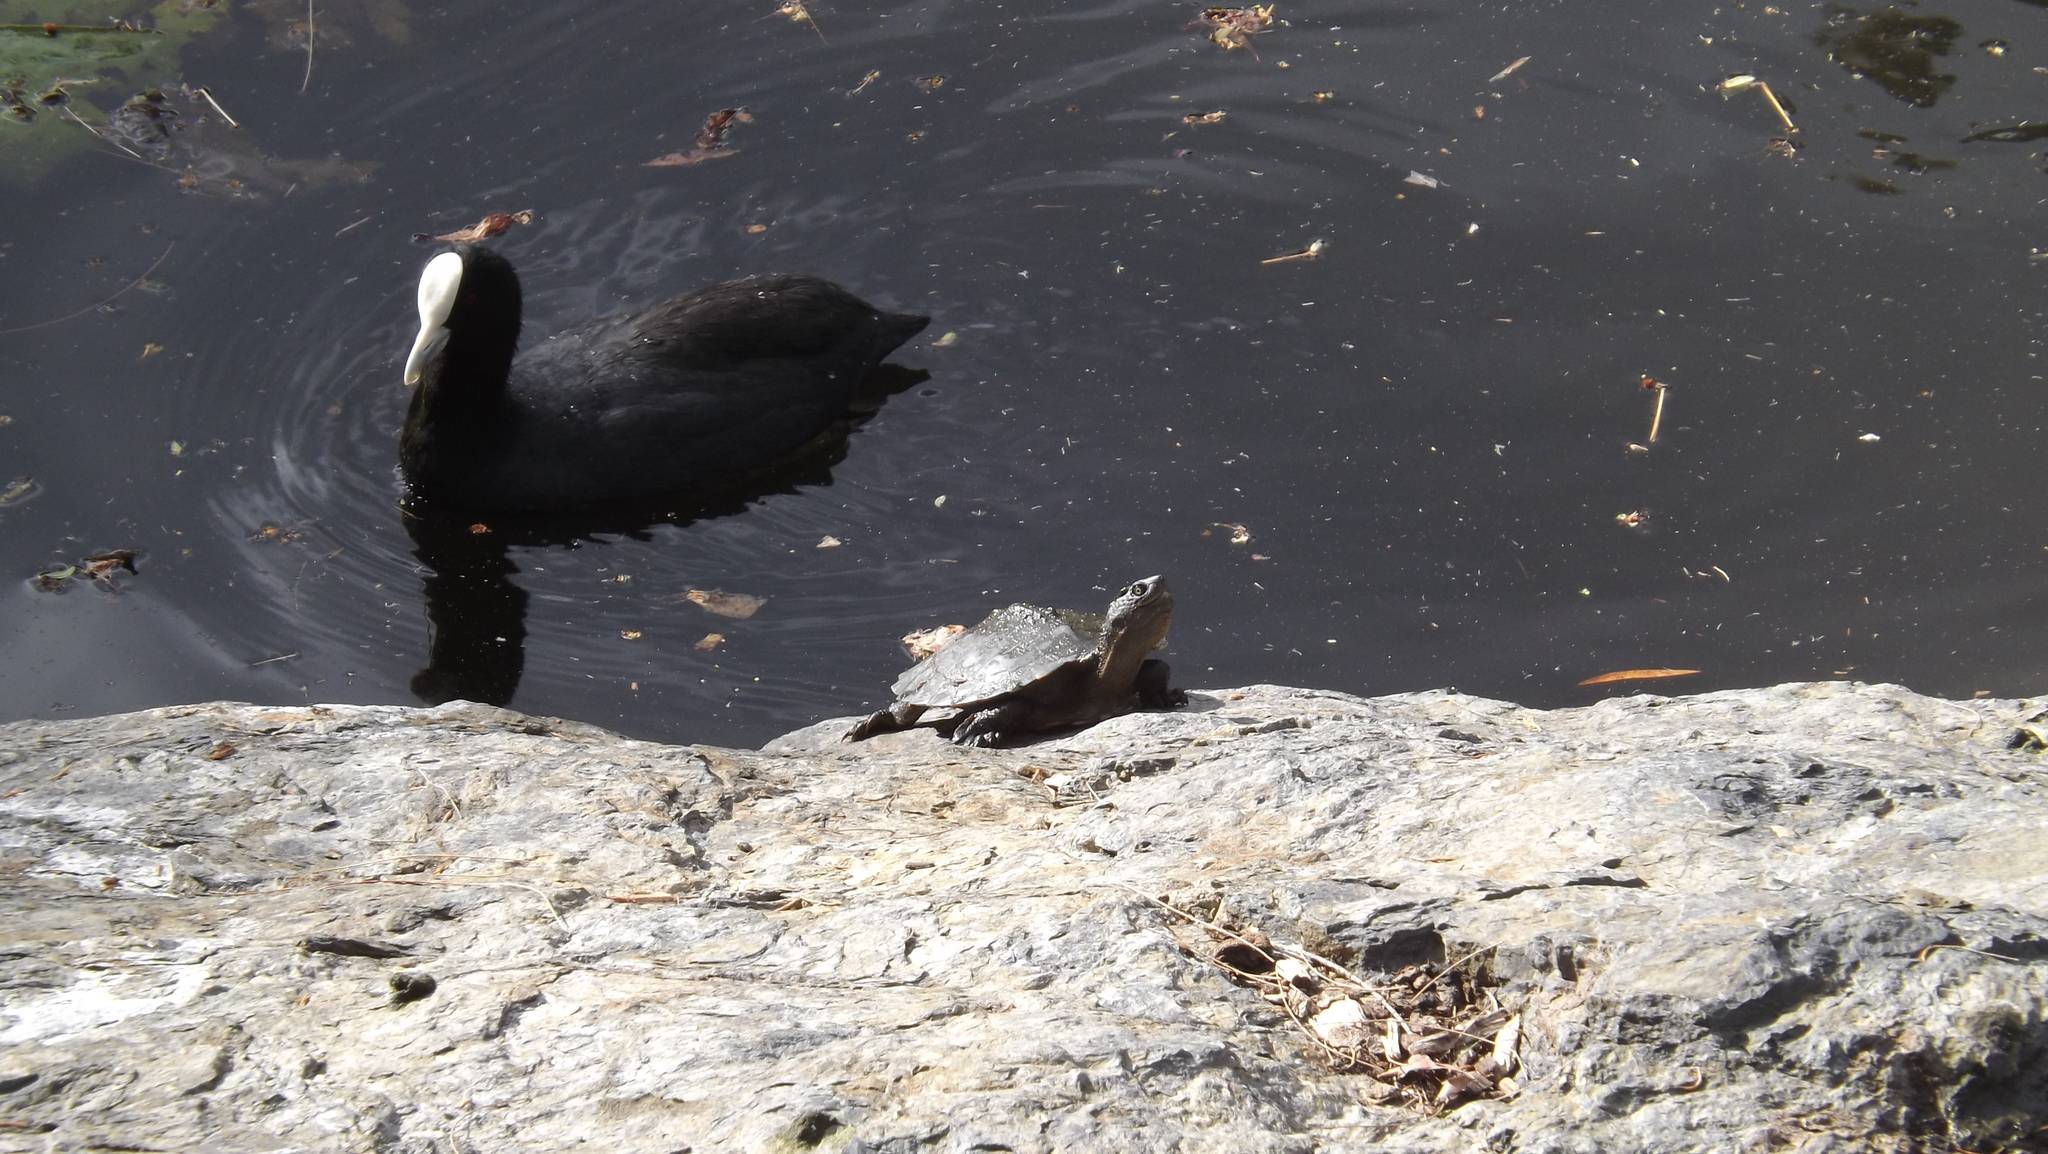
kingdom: Animalia
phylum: Chordata
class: Aves
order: Gruiformes
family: Rallidae
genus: Fulica
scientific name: Fulica atra
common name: Eurasian coot
